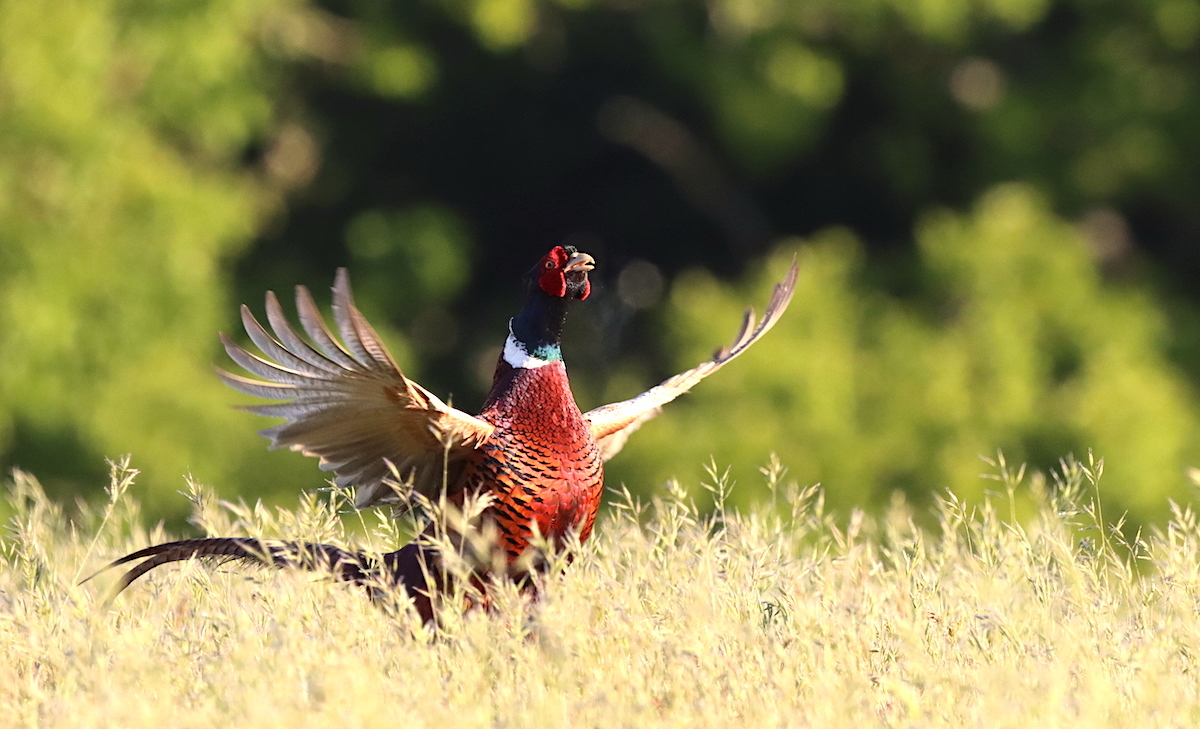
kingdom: Animalia
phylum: Chordata
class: Aves
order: Galliformes
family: Phasianidae
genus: Phasianus
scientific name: Phasianus colchicus
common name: Common pheasant
